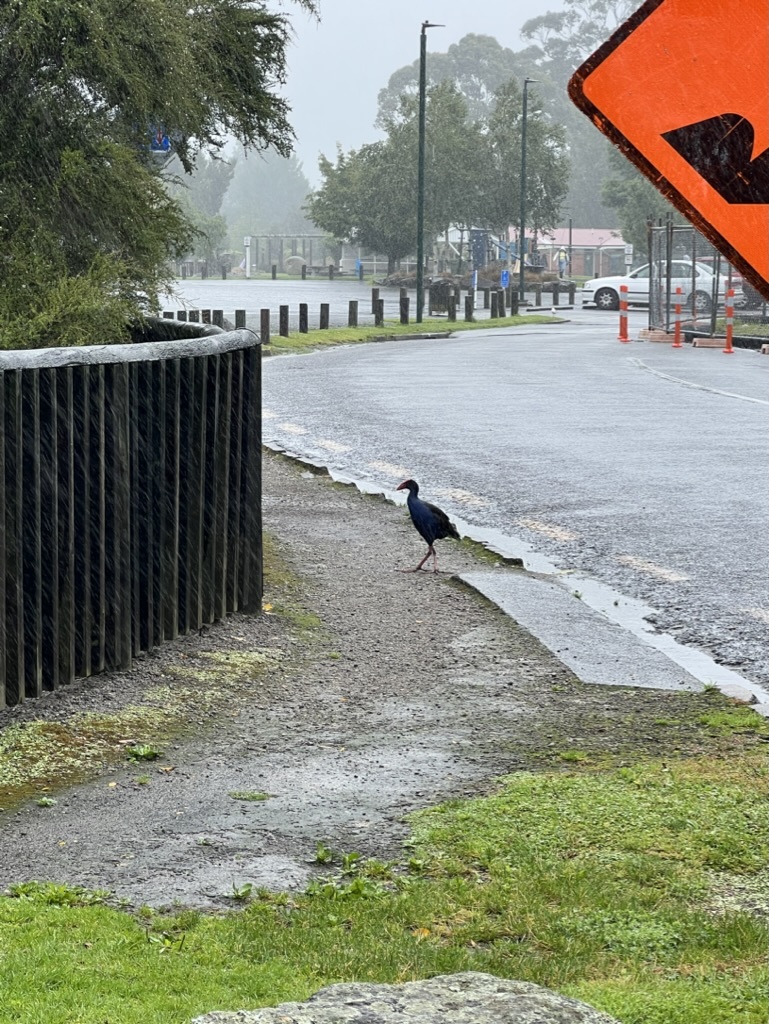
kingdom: Animalia
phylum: Chordata
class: Aves
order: Gruiformes
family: Rallidae
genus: Porphyrio
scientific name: Porphyrio melanotus
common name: Australasian swamphen
